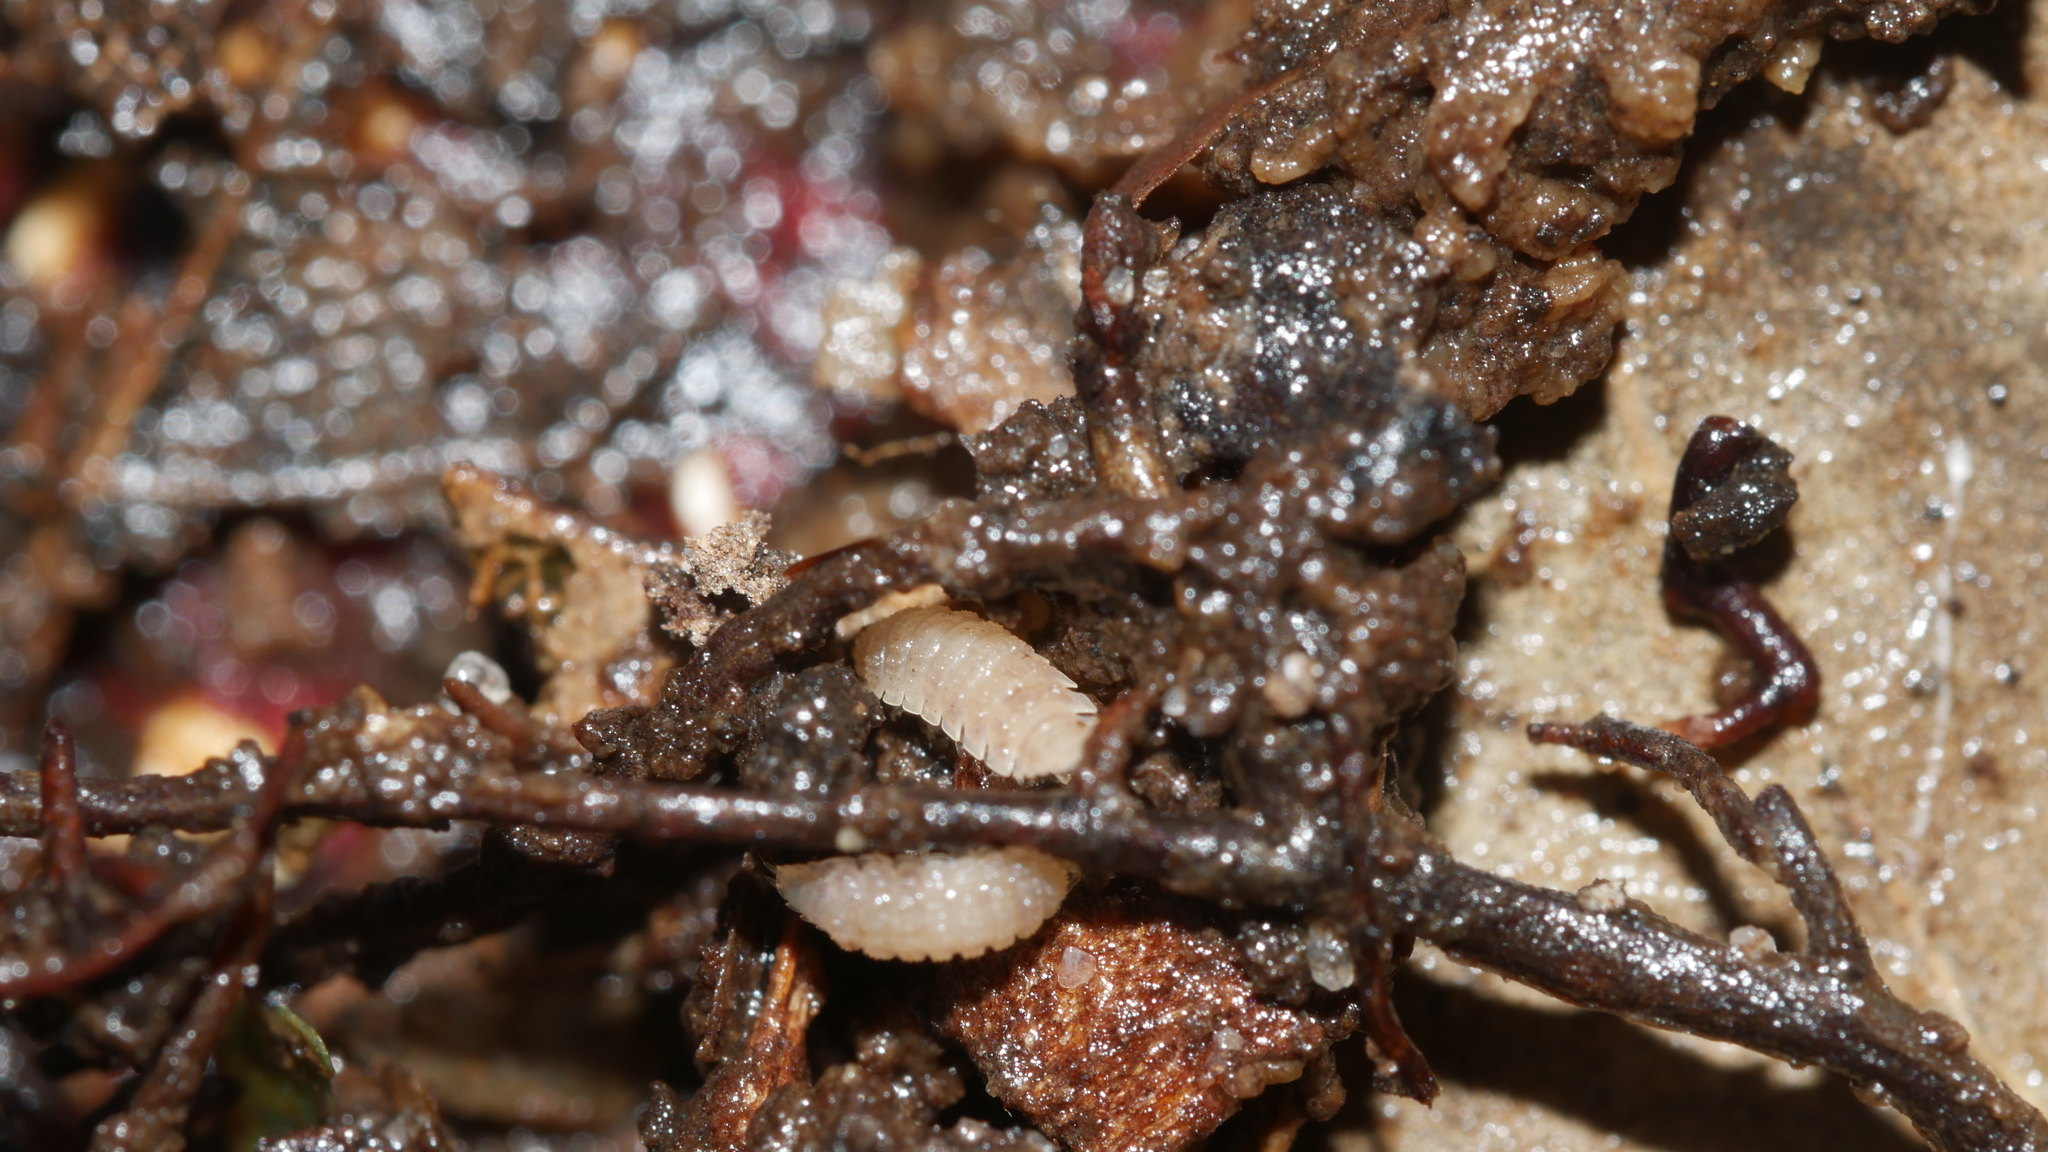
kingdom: Animalia
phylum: Arthropoda
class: Malacostraca
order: Isopoda
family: Trichoniscidae
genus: Haplophthalmus
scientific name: Haplophthalmus danicus
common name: Pillbug
